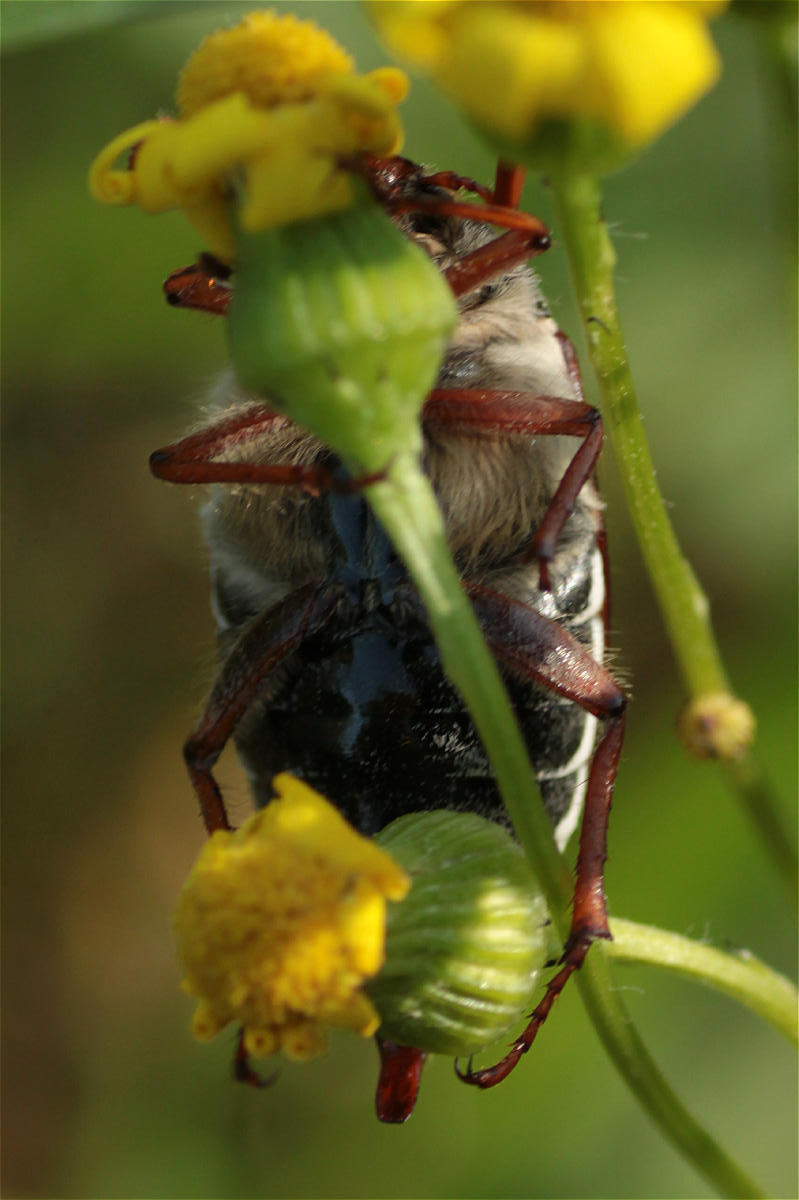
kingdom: Animalia
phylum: Arthropoda
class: Insecta
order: Coleoptera
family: Scarabaeidae
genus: Melolontha
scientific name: Melolontha melolontha
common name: Cockchafer maybeetle
